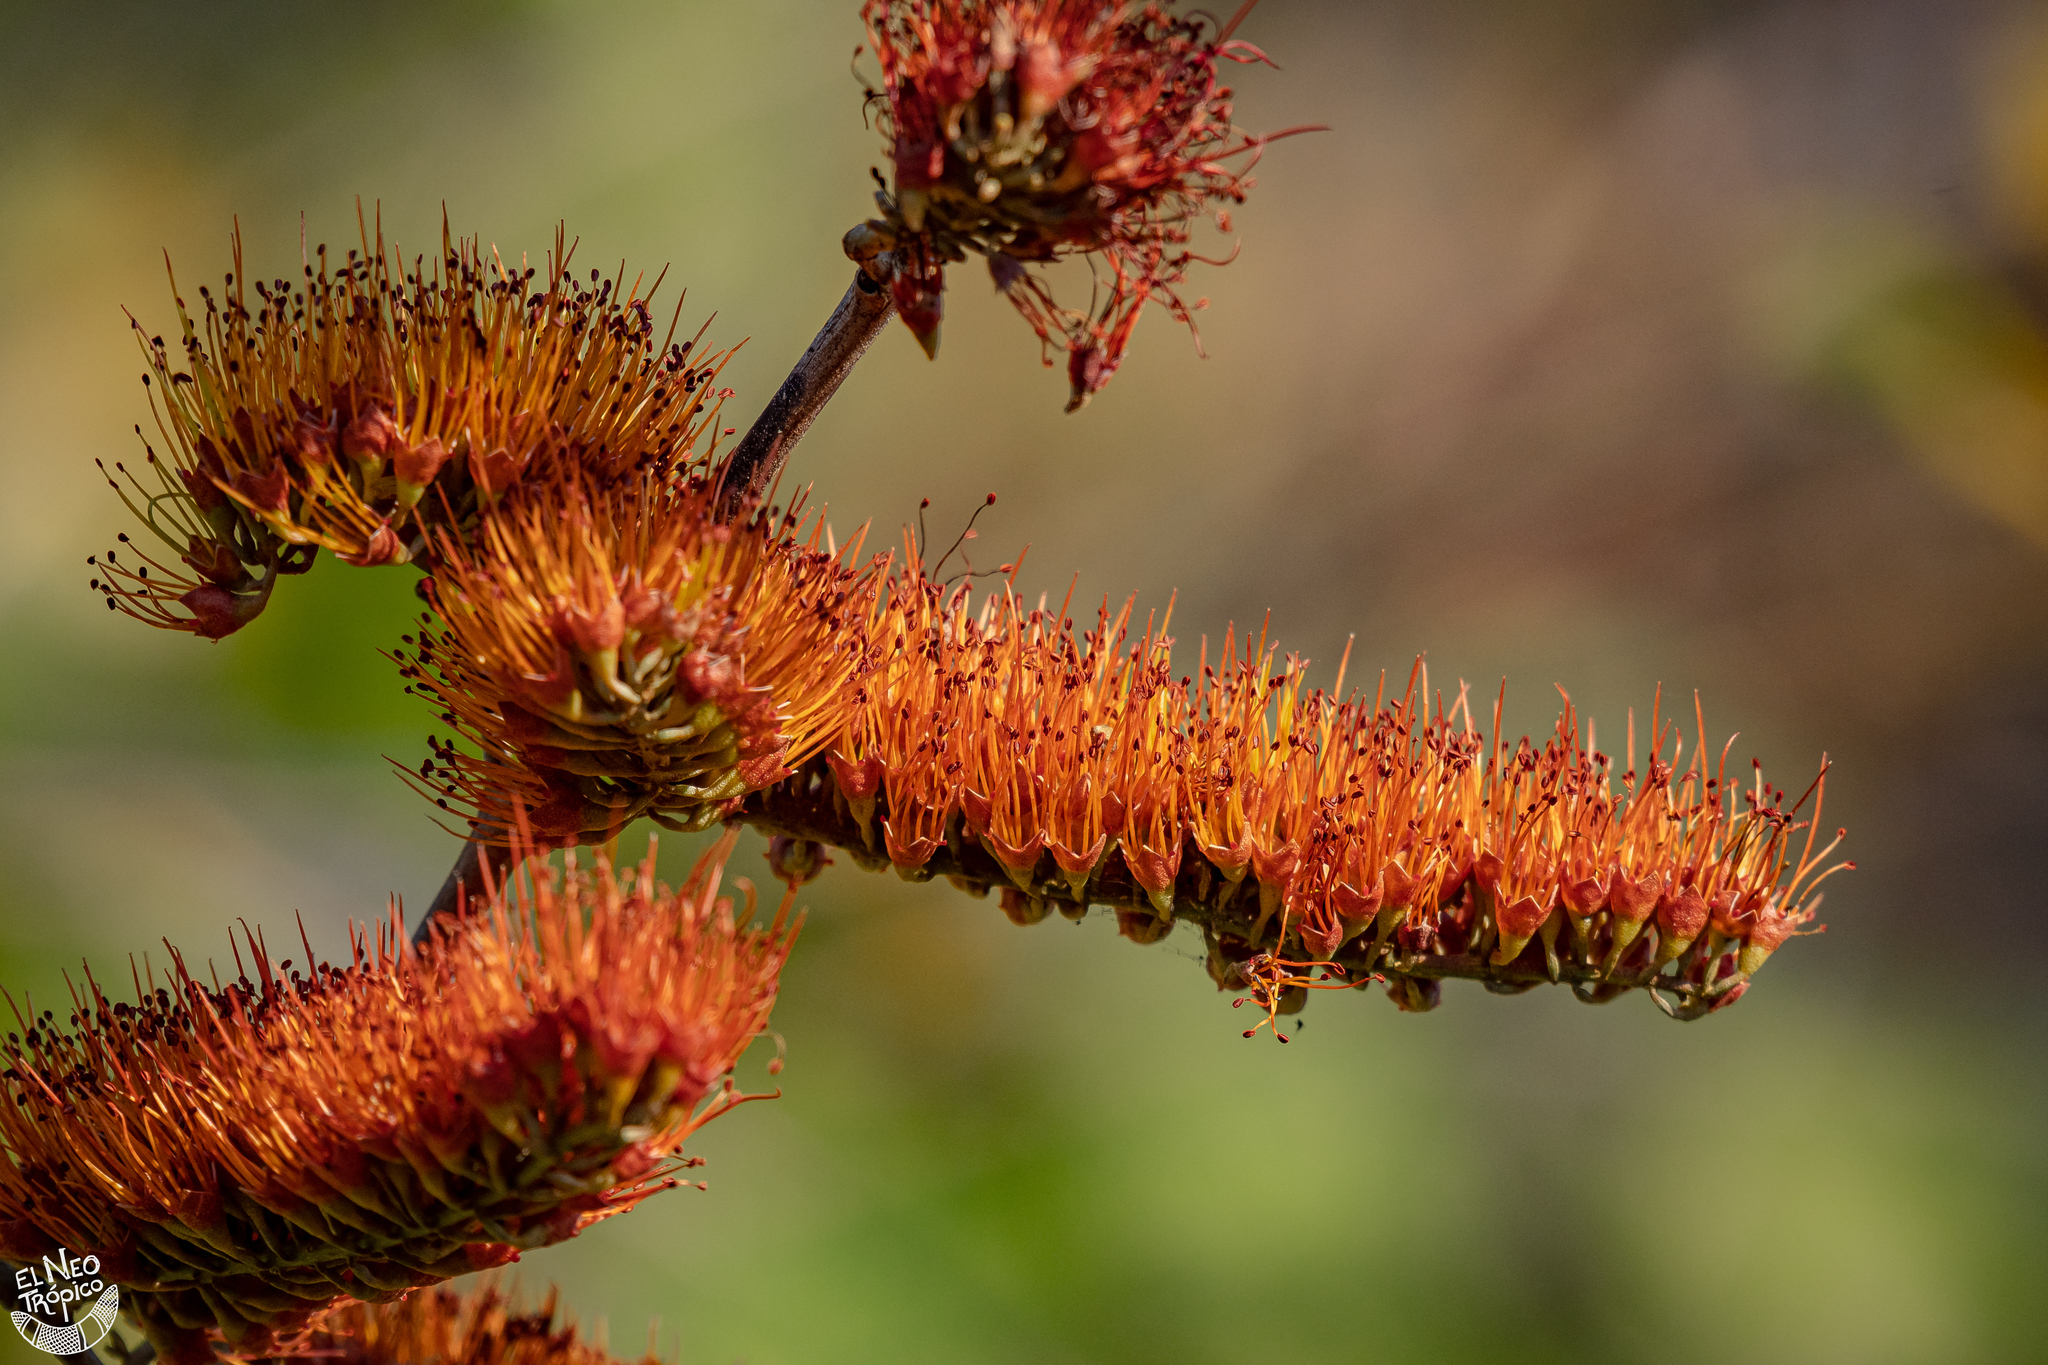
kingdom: Plantae
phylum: Tracheophyta
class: Magnoliopsida
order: Myrtales
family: Combretaceae
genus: Combretum
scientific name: Combretum farinosum
